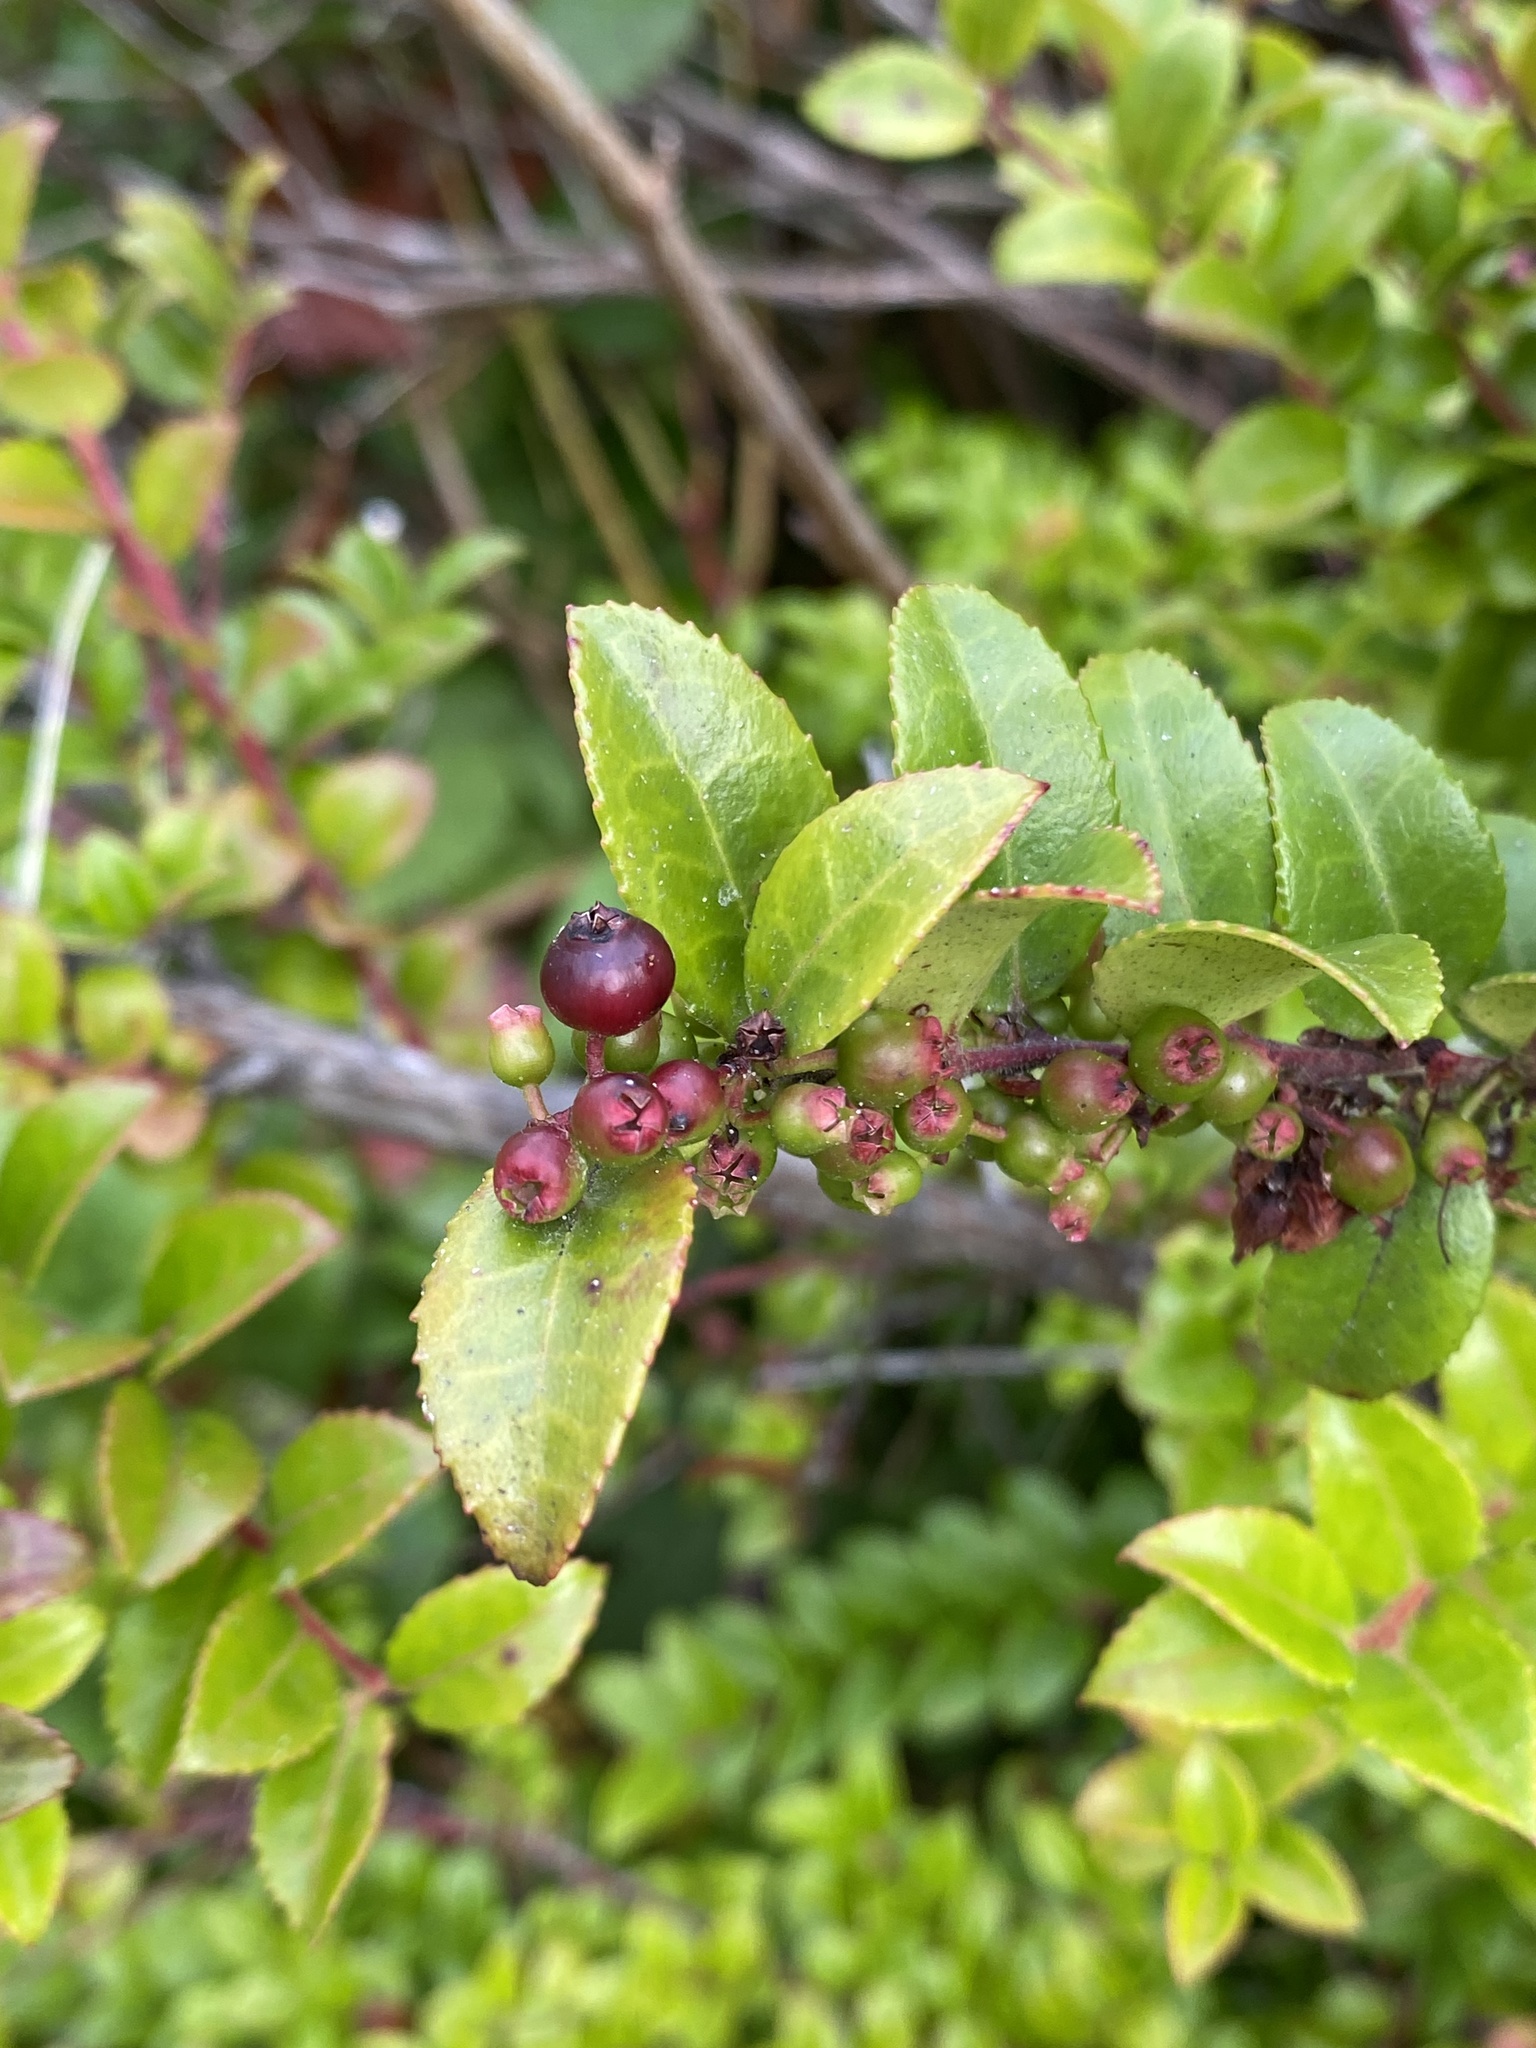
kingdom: Plantae
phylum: Tracheophyta
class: Magnoliopsida
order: Ericales
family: Ericaceae
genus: Vaccinium
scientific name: Vaccinium ovatum
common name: California-huckleberry
